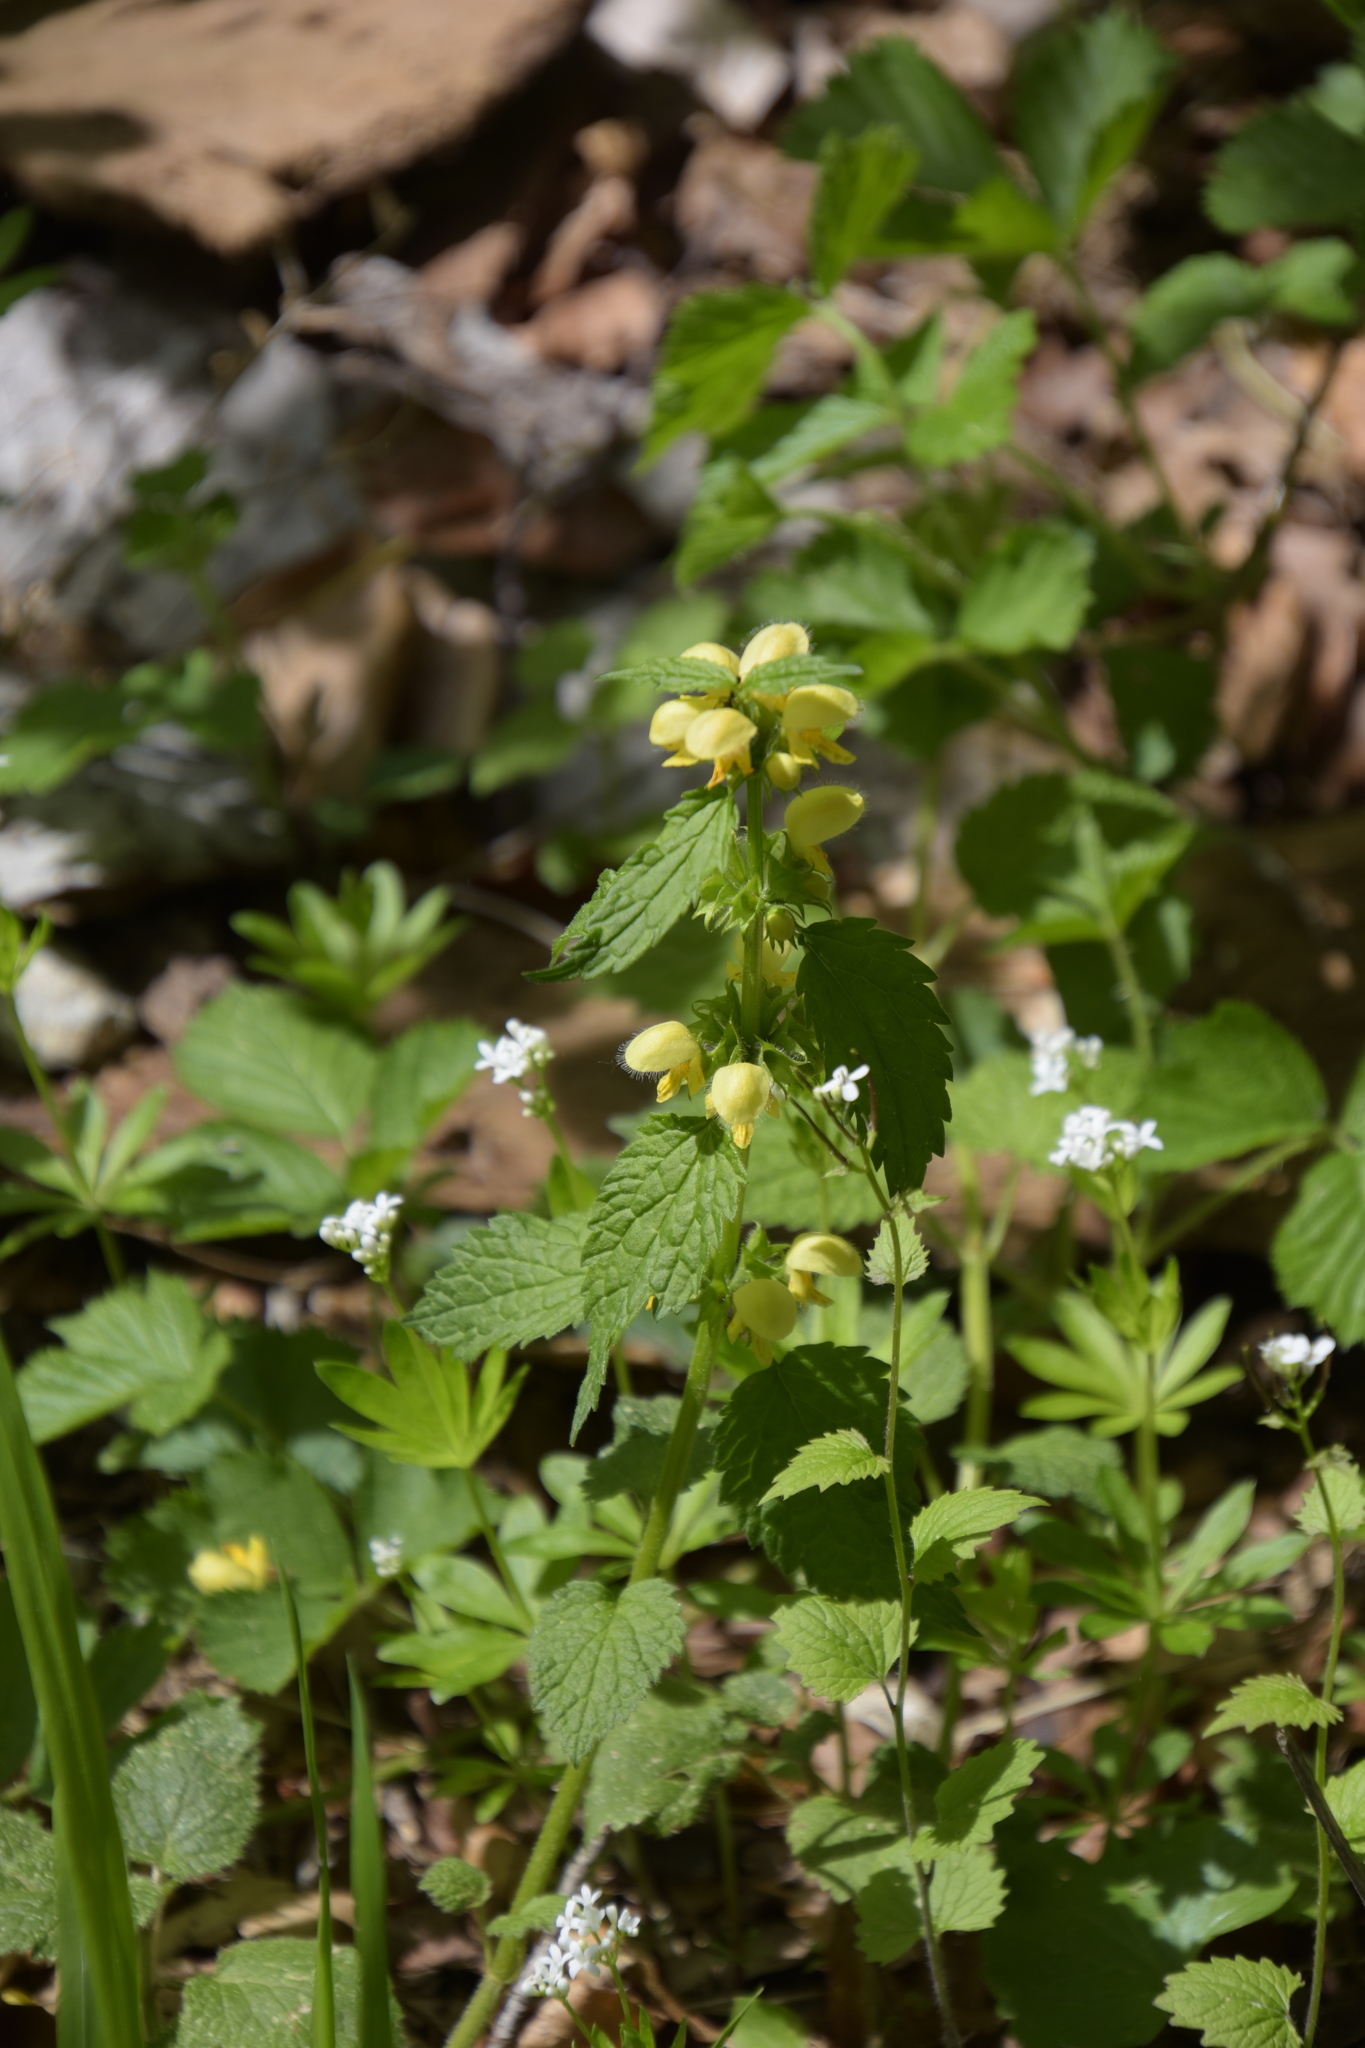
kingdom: Plantae
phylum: Tracheophyta
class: Magnoliopsida
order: Lamiales
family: Lamiaceae
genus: Lamium
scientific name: Lamium galeobdolon
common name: Yellow archangel
